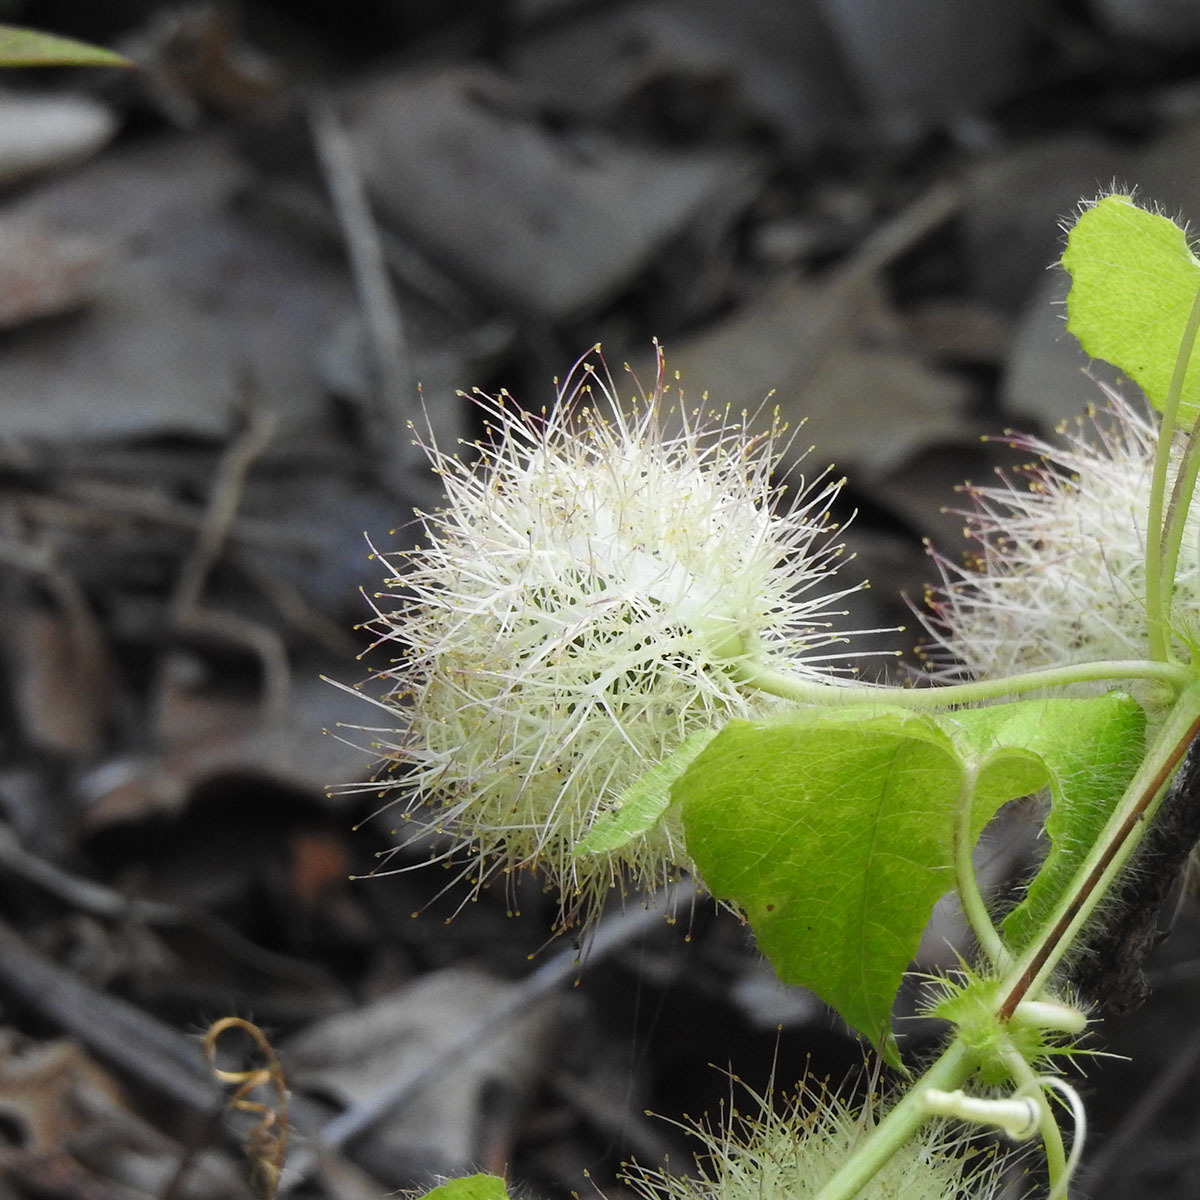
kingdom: Plantae
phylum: Tracheophyta
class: Magnoliopsida
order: Malpighiales
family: Passifloraceae
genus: Passiflora
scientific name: Passiflora foetida
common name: Fetid passionflower
